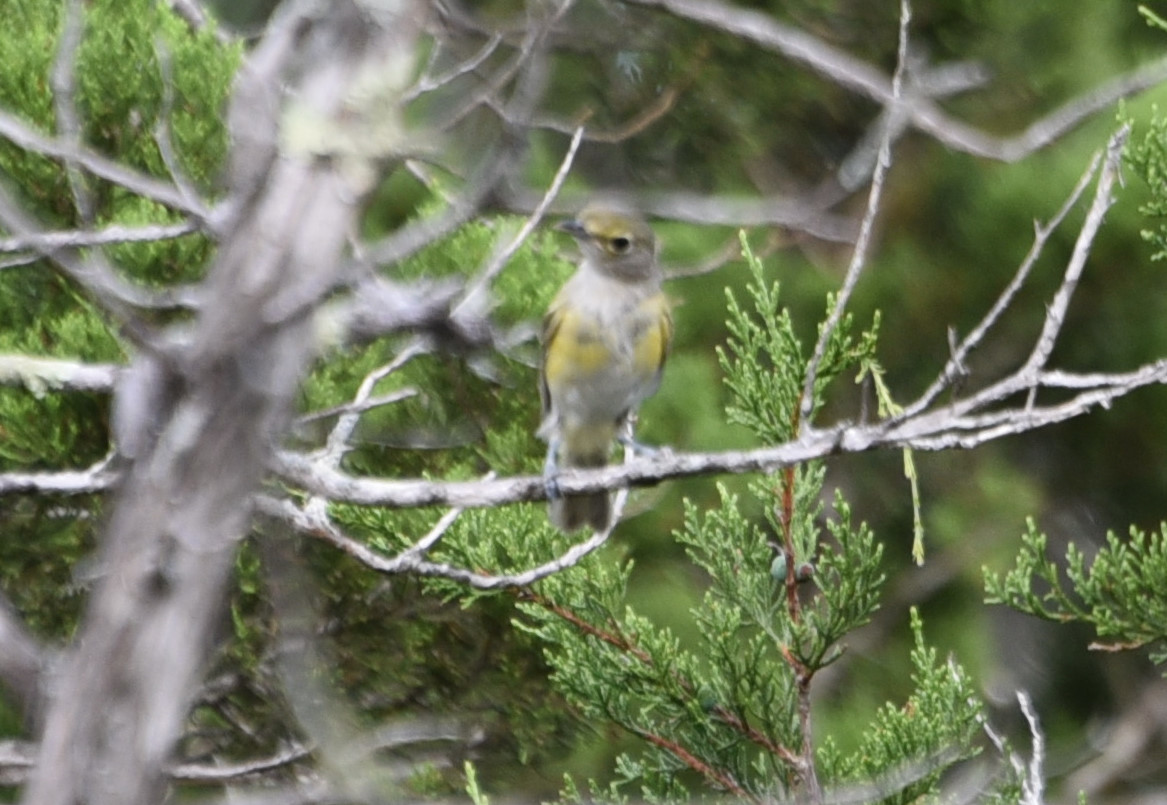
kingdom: Animalia
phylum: Chordata
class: Aves
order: Passeriformes
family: Vireonidae
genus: Vireo
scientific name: Vireo griseus
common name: White-eyed vireo
